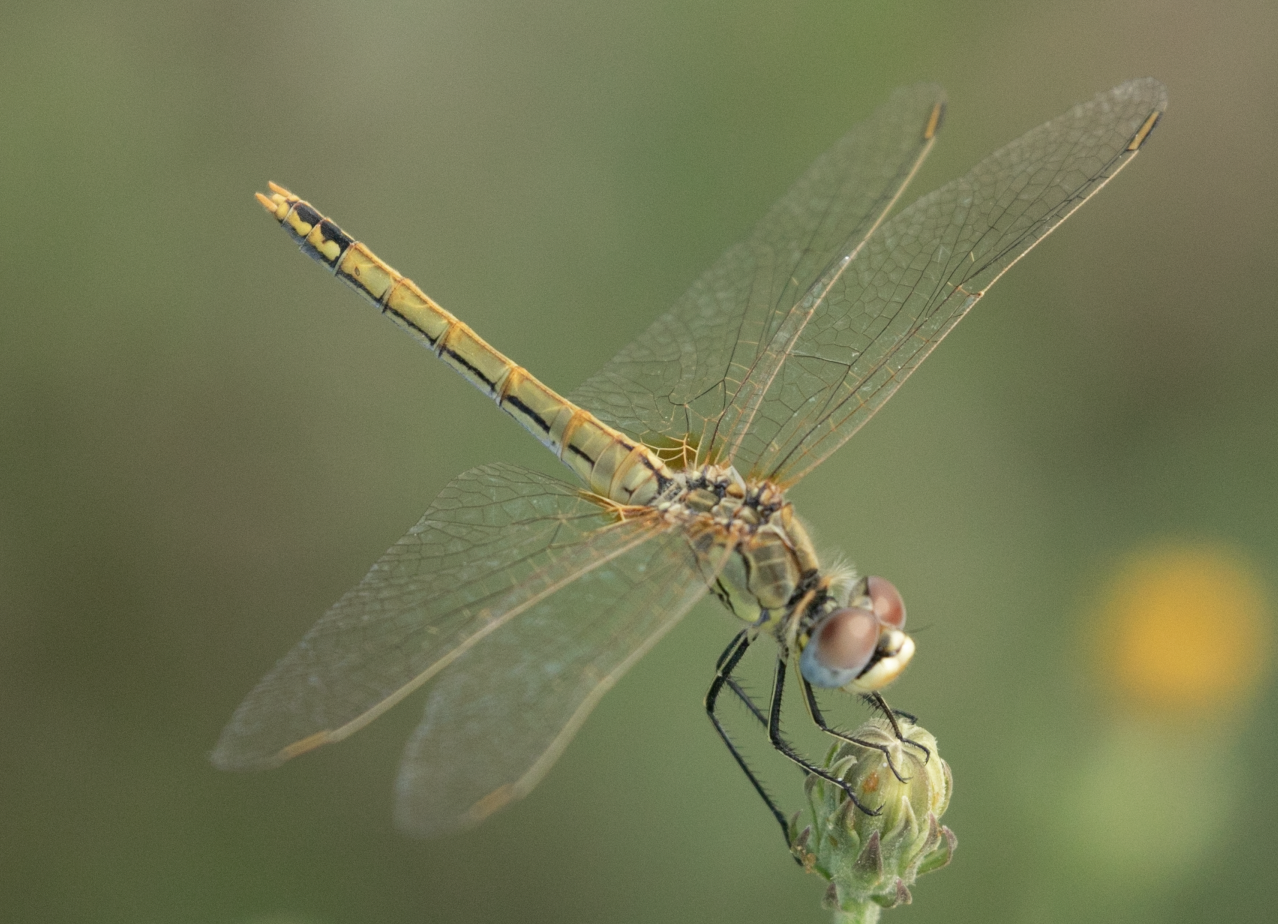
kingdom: Animalia
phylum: Arthropoda
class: Insecta
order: Odonata
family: Libellulidae
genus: Sympetrum
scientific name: Sympetrum fonscolombii
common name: Red-veined darter
